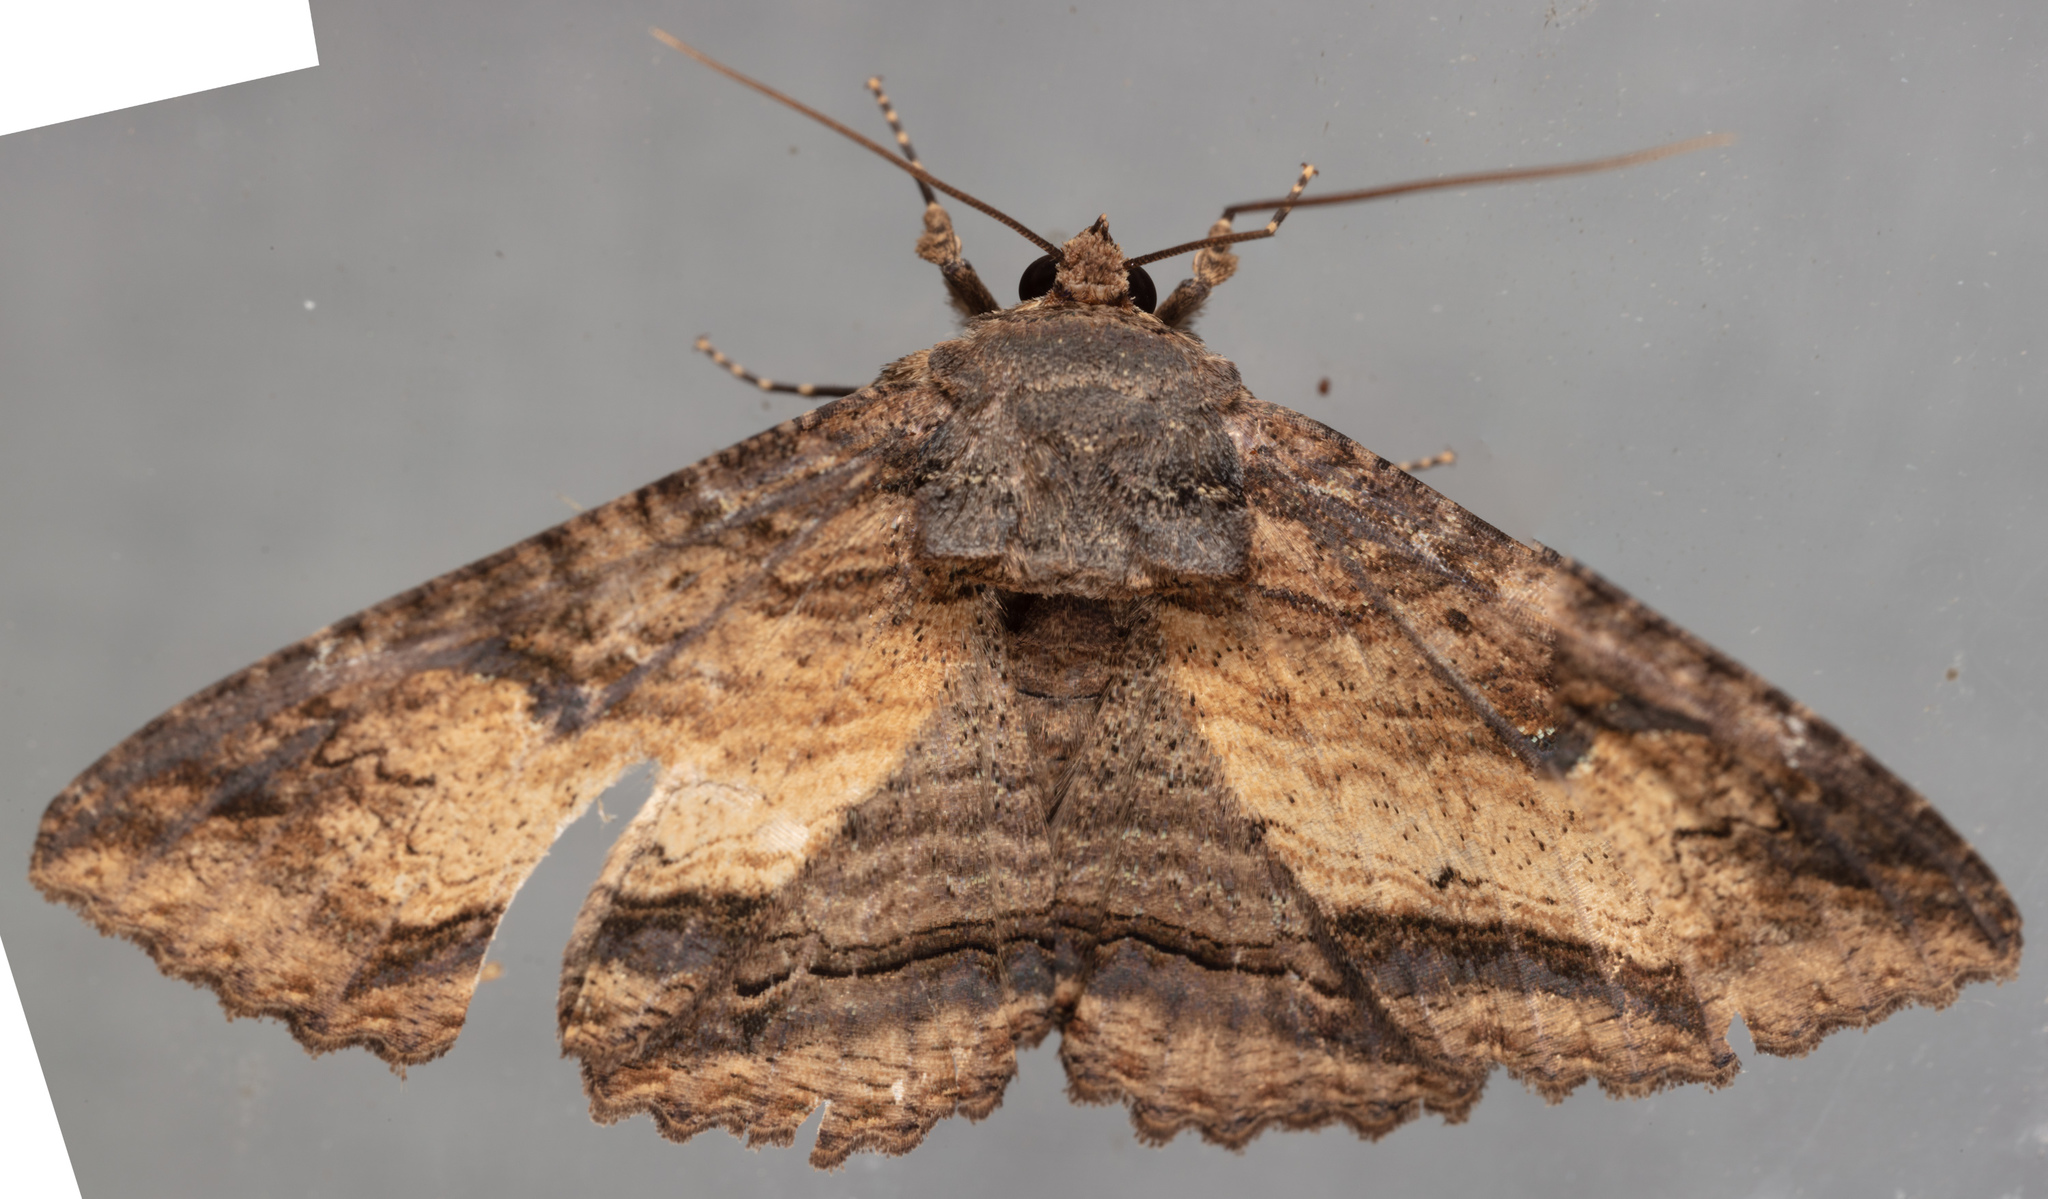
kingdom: Animalia
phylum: Arthropoda
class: Insecta
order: Lepidoptera
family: Erebidae
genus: Zale
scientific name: Zale lunata
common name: Lunate zale moth
